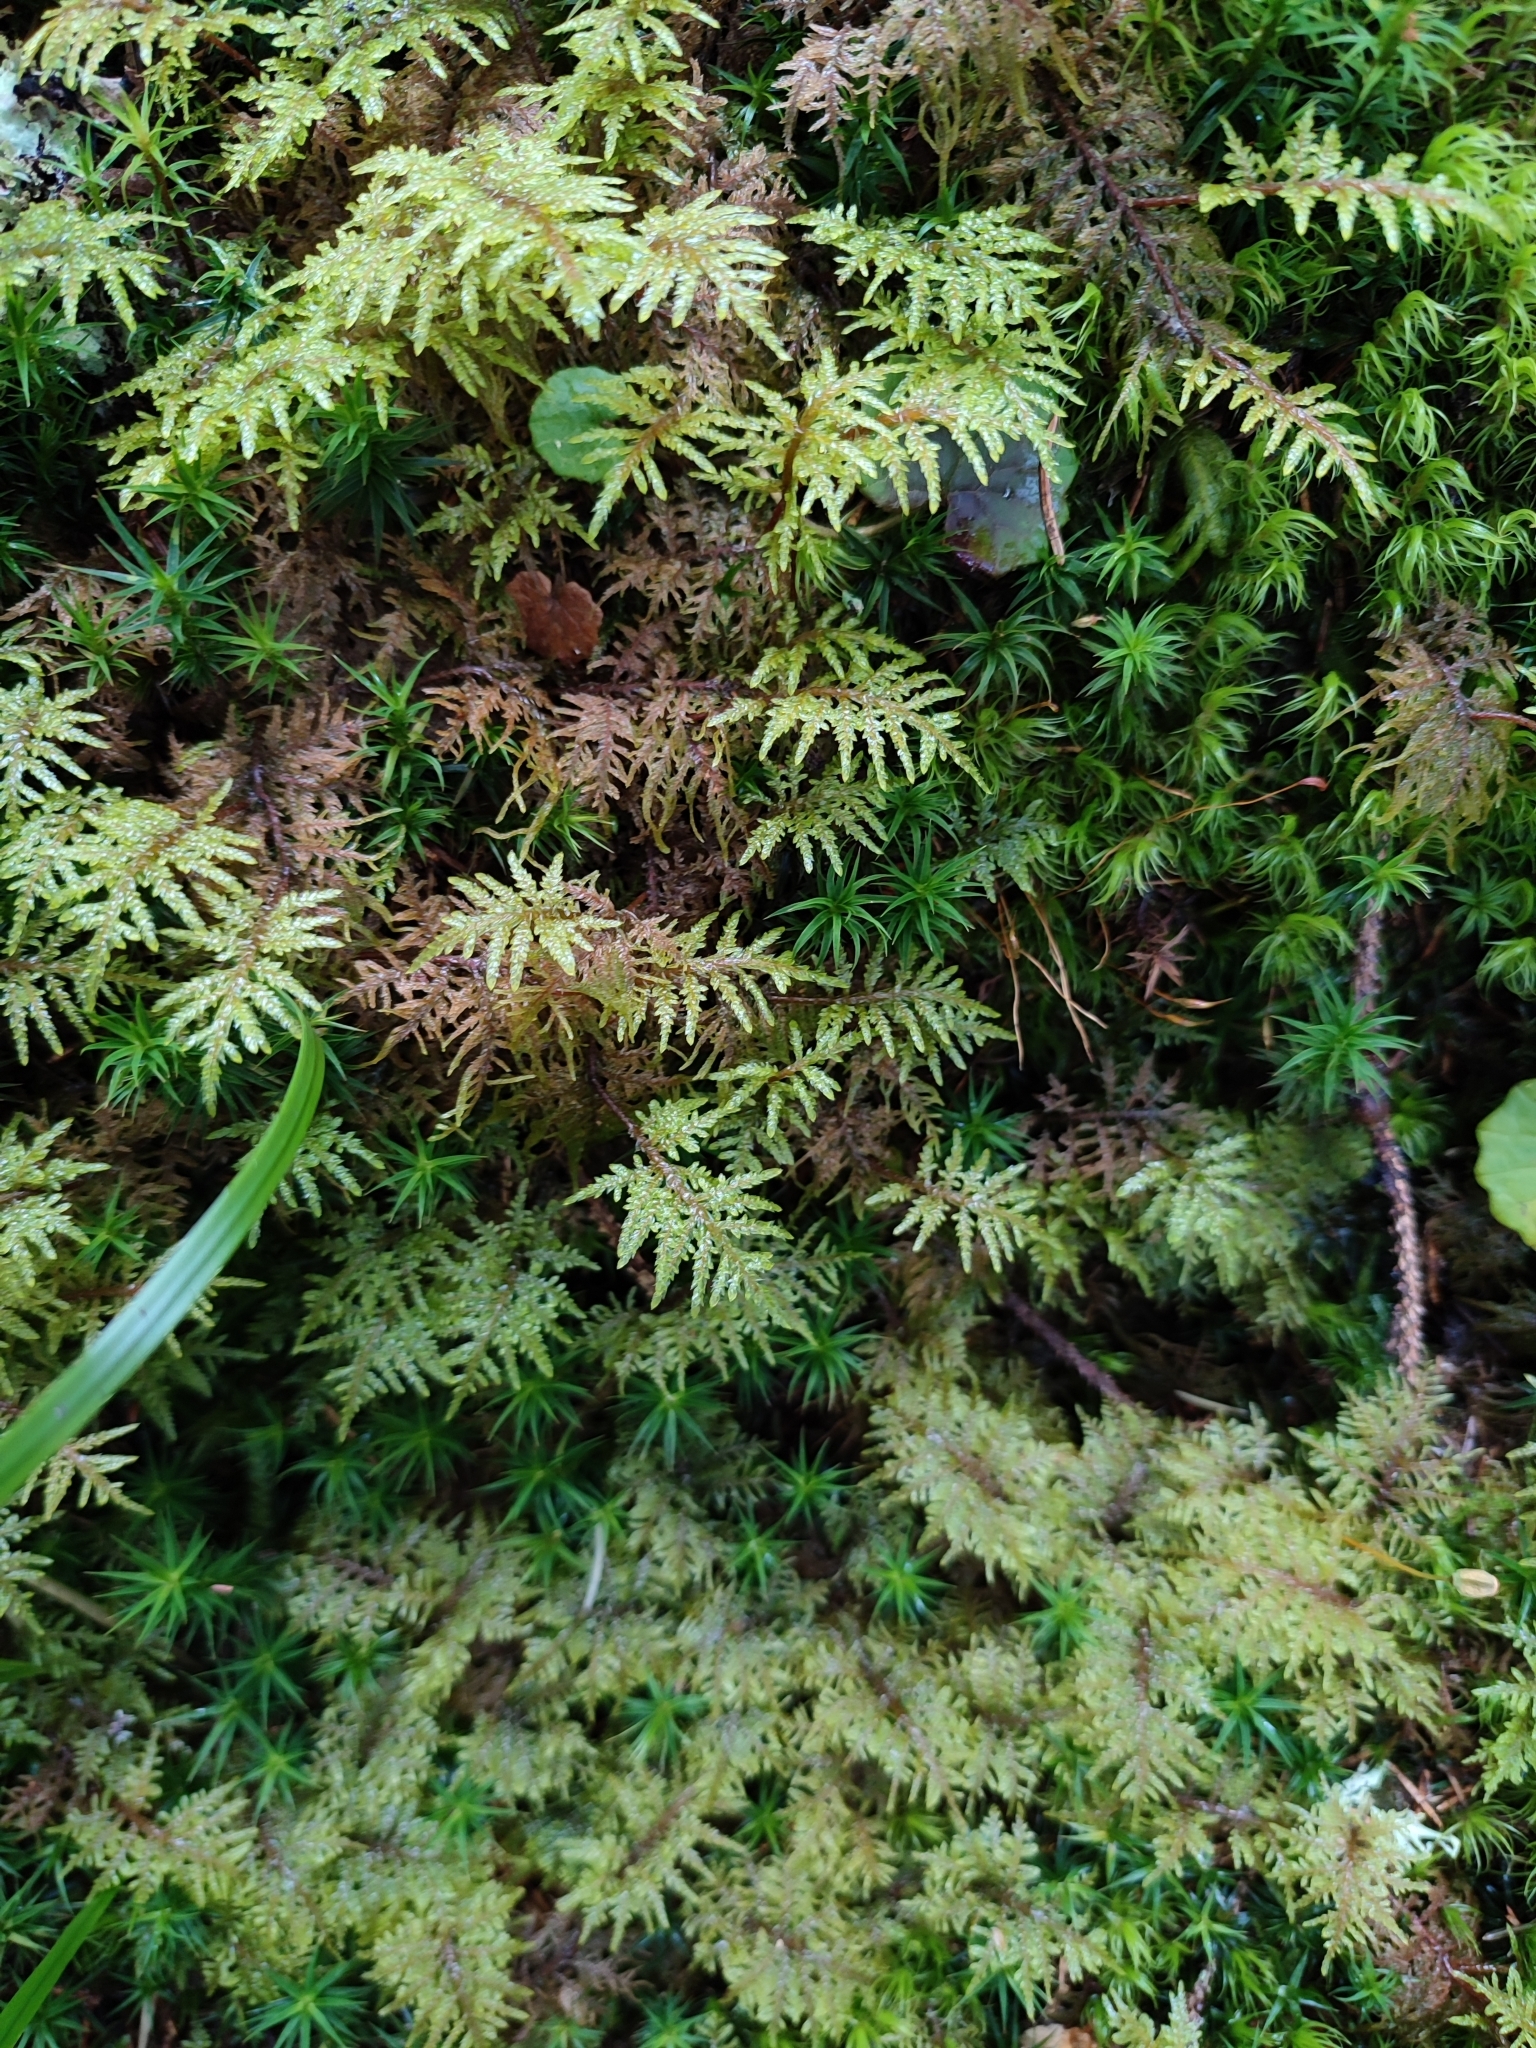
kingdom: Plantae
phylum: Bryophyta
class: Bryopsida
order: Hypnales
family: Hylocomiaceae
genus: Hylocomium
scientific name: Hylocomium splendens
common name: Stairstep moss
